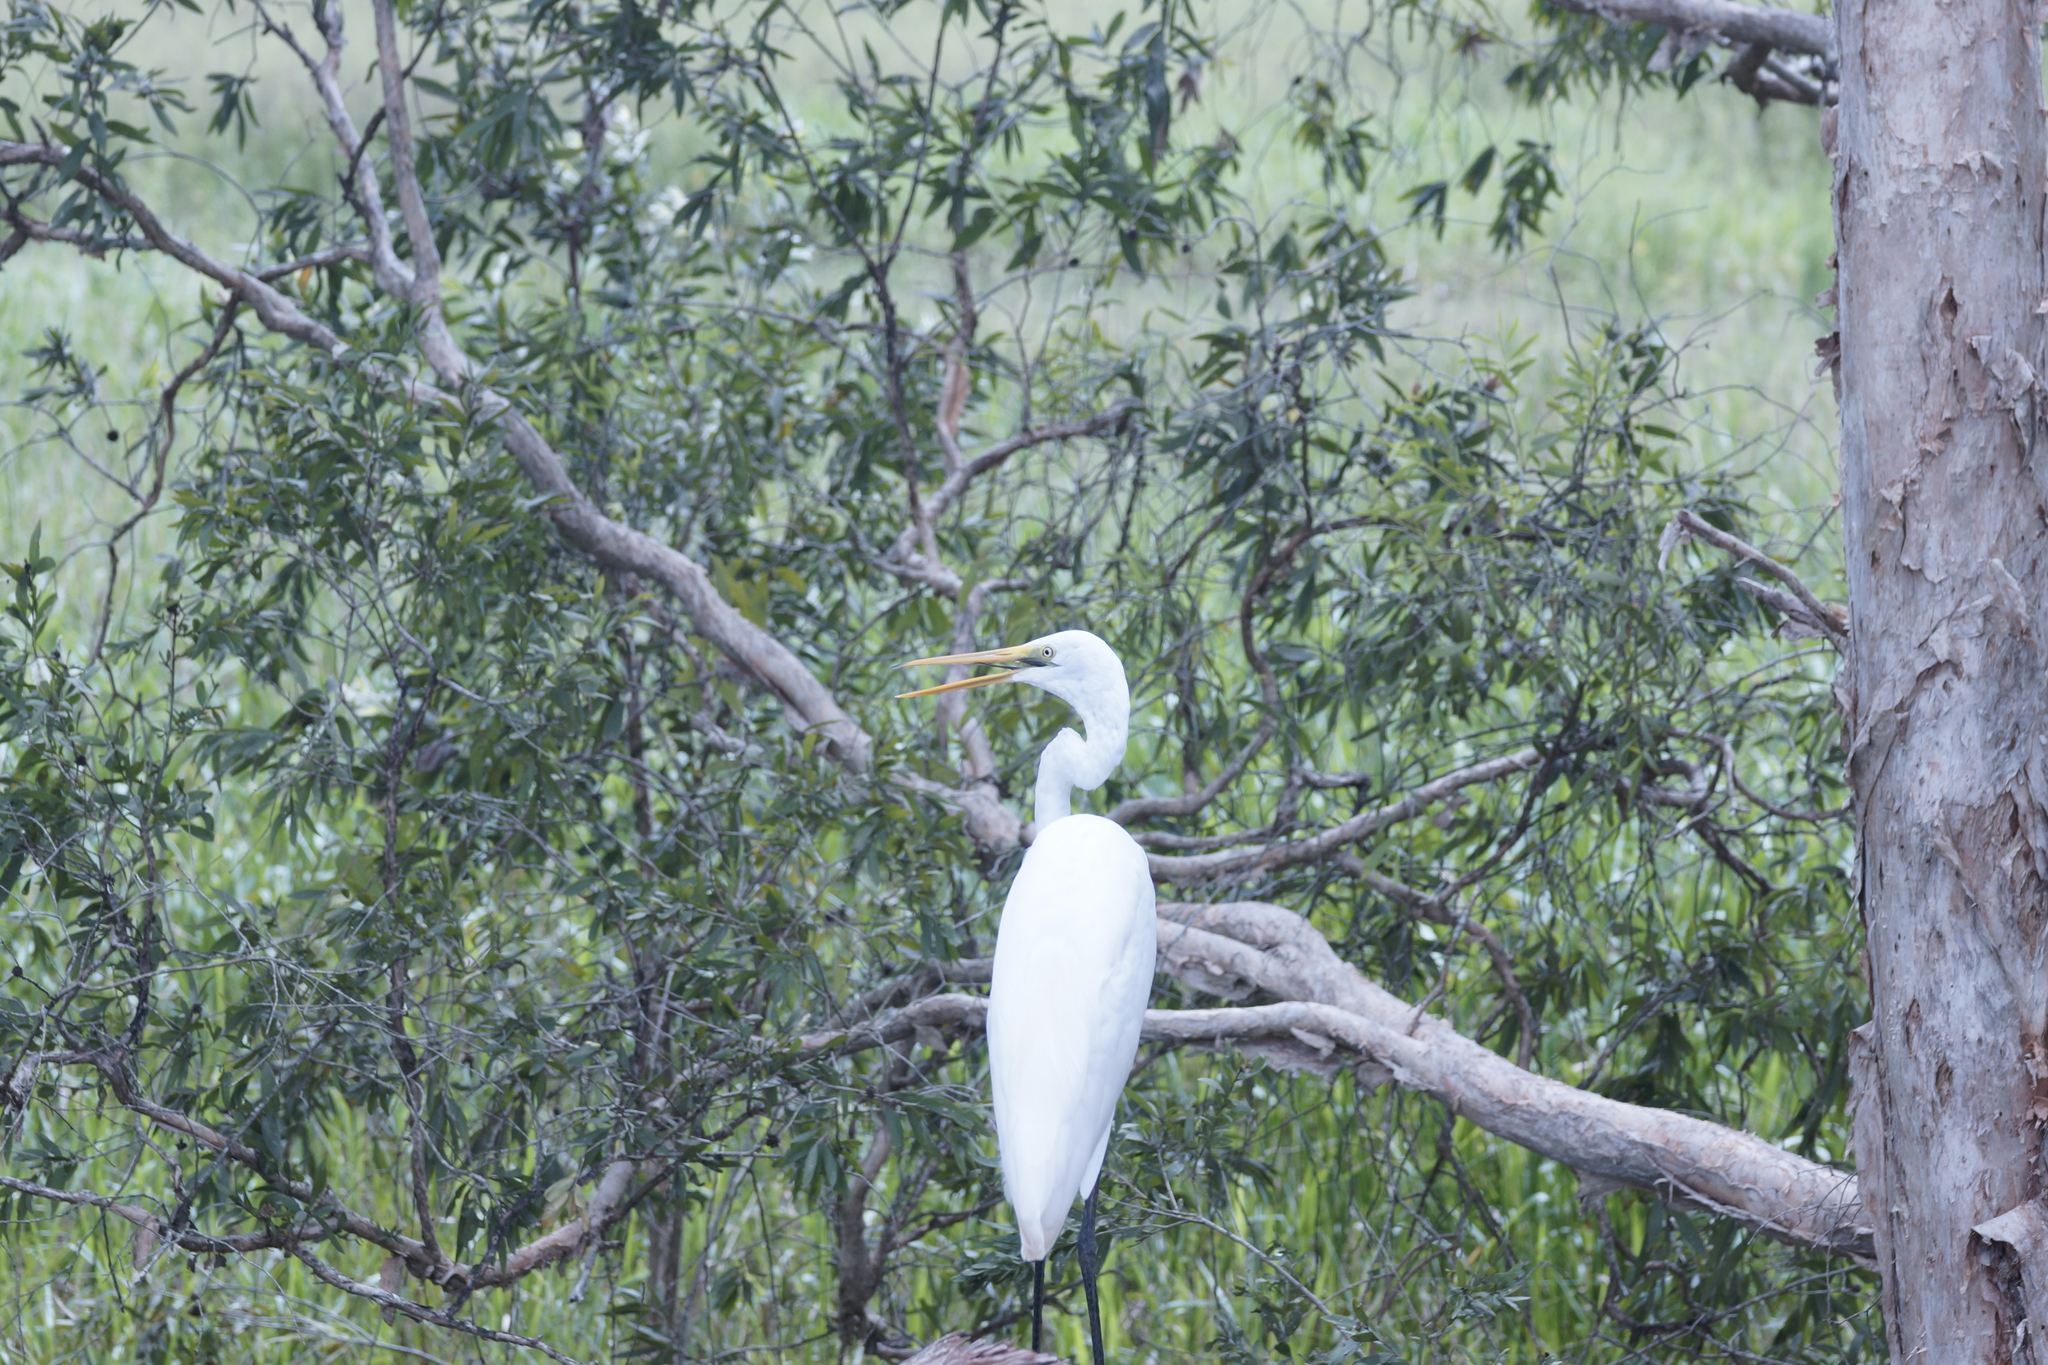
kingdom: Animalia
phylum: Chordata
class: Aves
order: Pelecaniformes
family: Ardeidae
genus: Ardea
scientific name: Ardea alba
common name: Great egret
